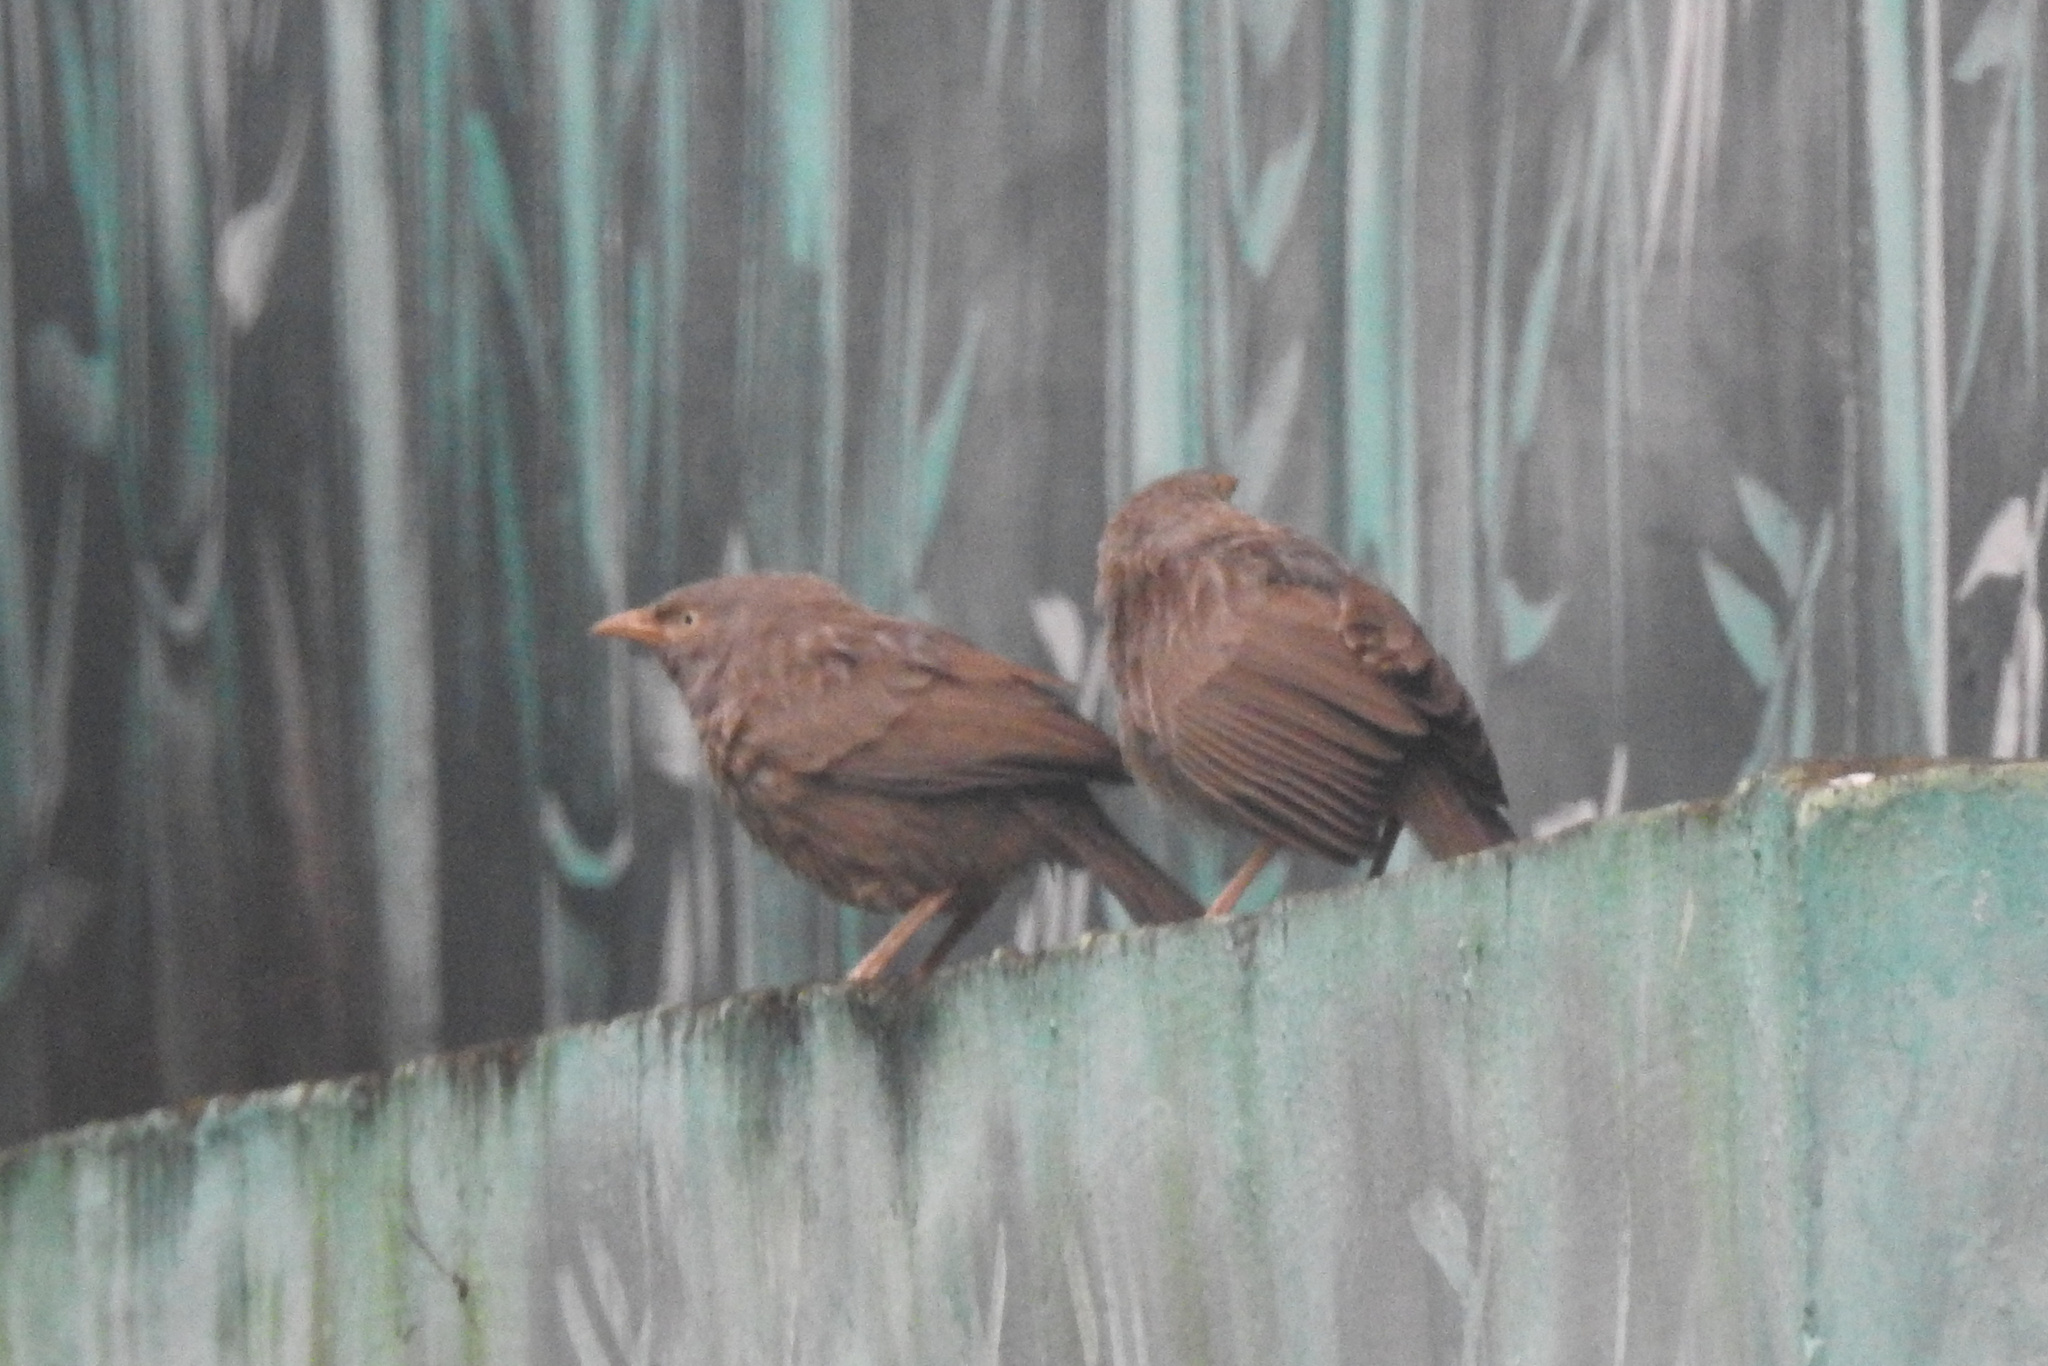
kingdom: Animalia
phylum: Chordata
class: Aves
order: Passeriformes
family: Leiothrichidae
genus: Turdoides
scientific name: Turdoides striata
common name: Jungle babbler
